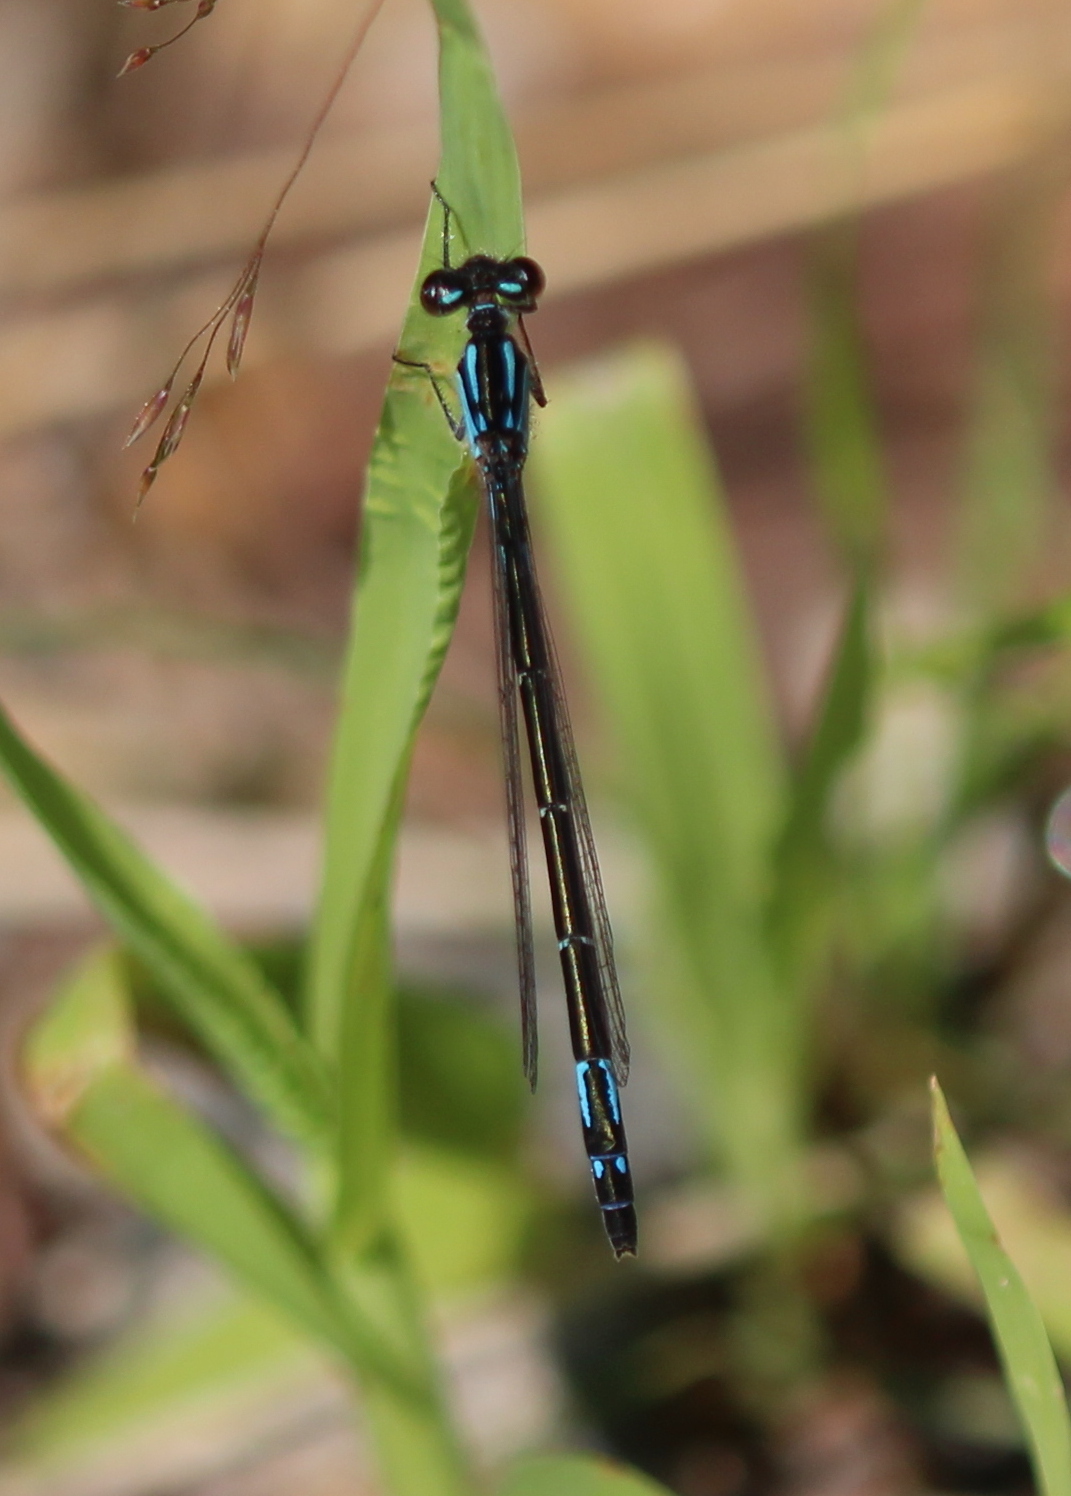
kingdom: Animalia
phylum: Arthropoda
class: Insecta
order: Odonata
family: Coenagrionidae
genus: Enallagma
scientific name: Enallagma aspersum
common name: Azure bluet
